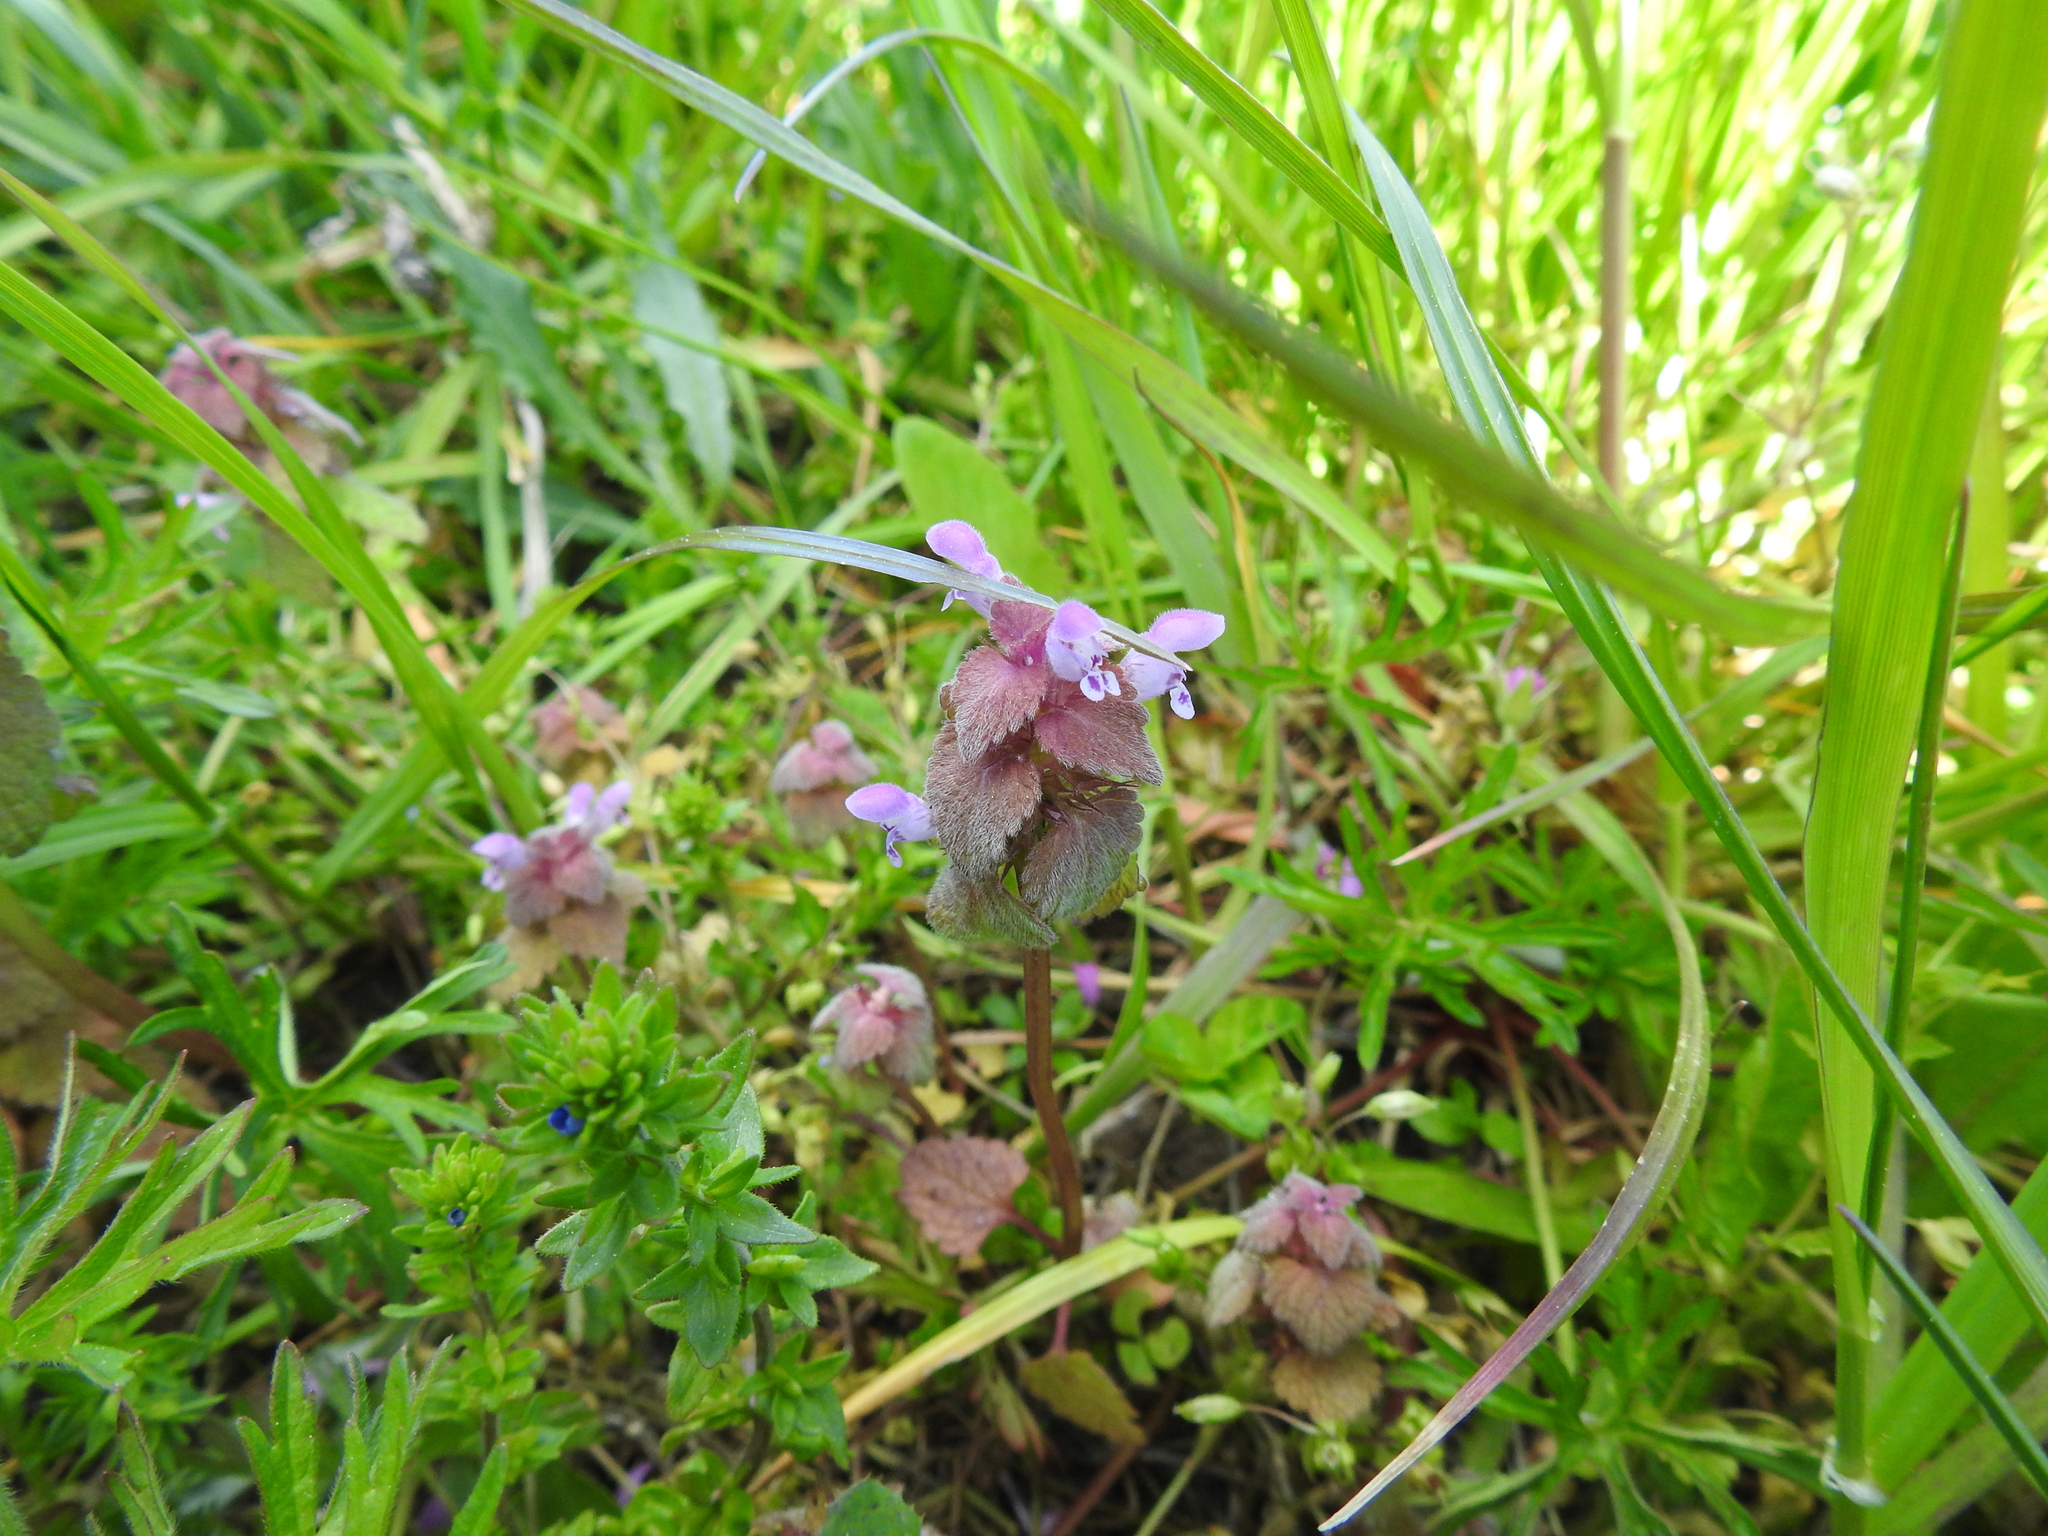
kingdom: Plantae
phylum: Tracheophyta
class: Magnoliopsida
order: Lamiales
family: Lamiaceae
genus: Lamium
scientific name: Lamium purpureum
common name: Red dead-nettle
